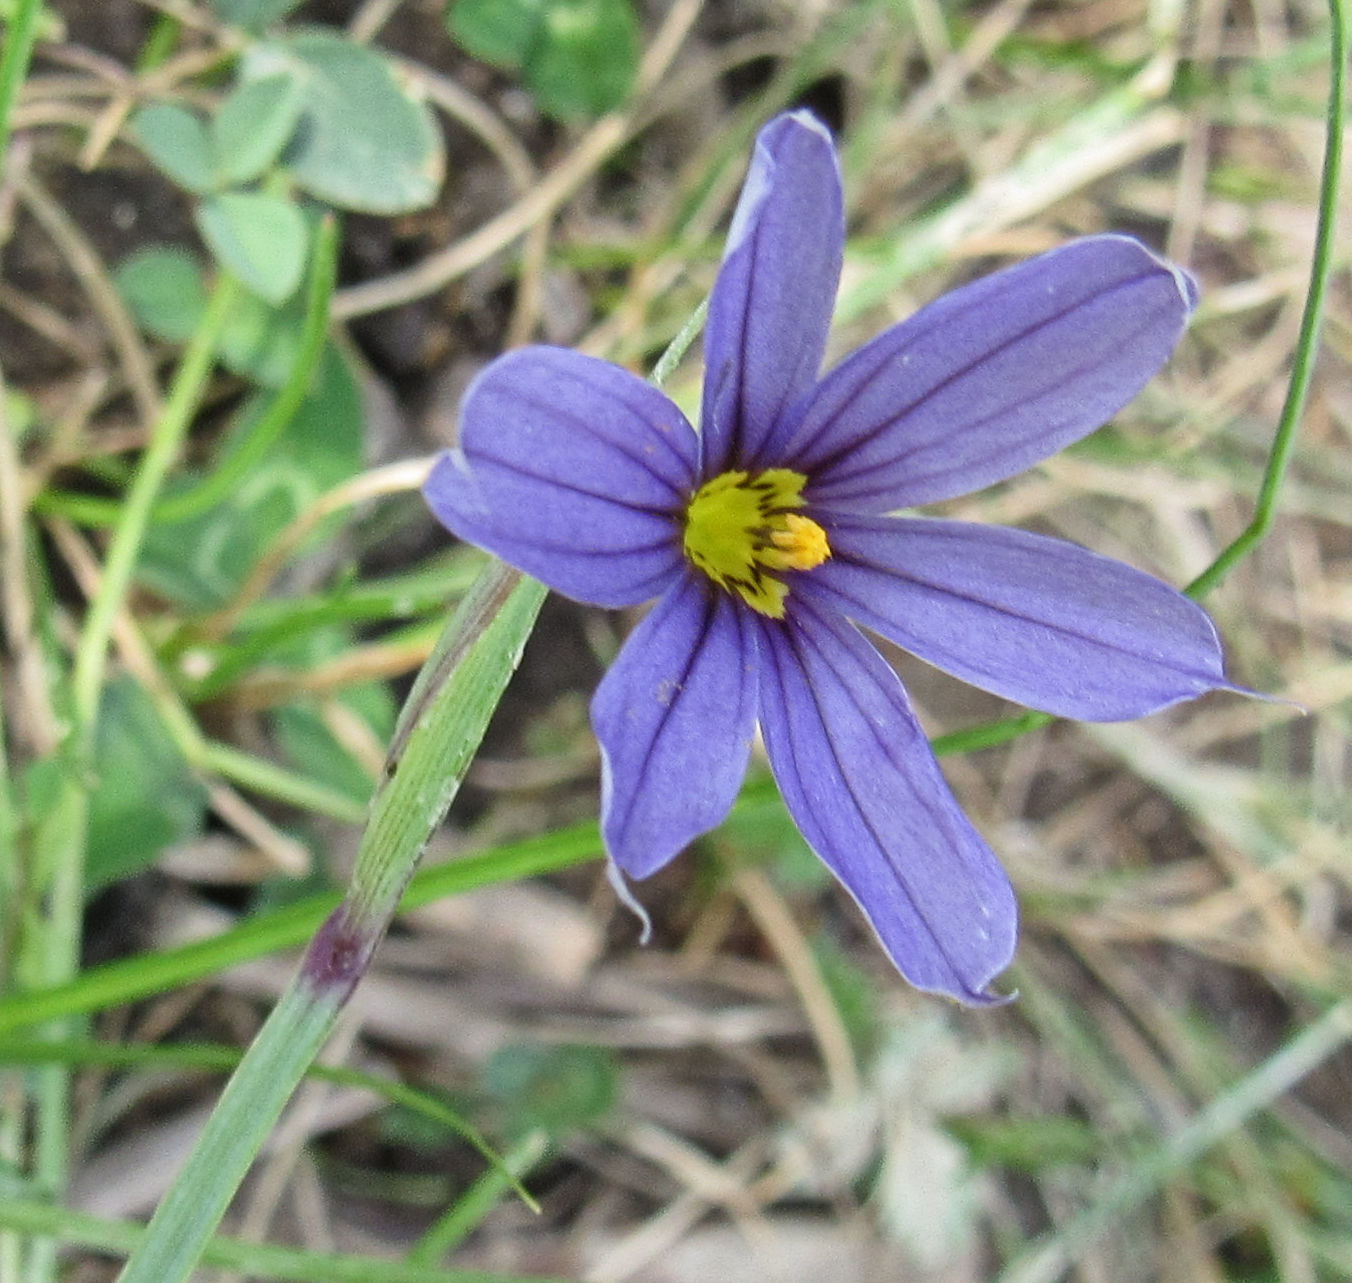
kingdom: Plantae
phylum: Tracheophyta
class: Liliopsida
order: Asparagales
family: Iridaceae
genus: Sisyrinchium
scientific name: Sisyrinchium idahoense
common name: Idaho blue-eyed-grass
